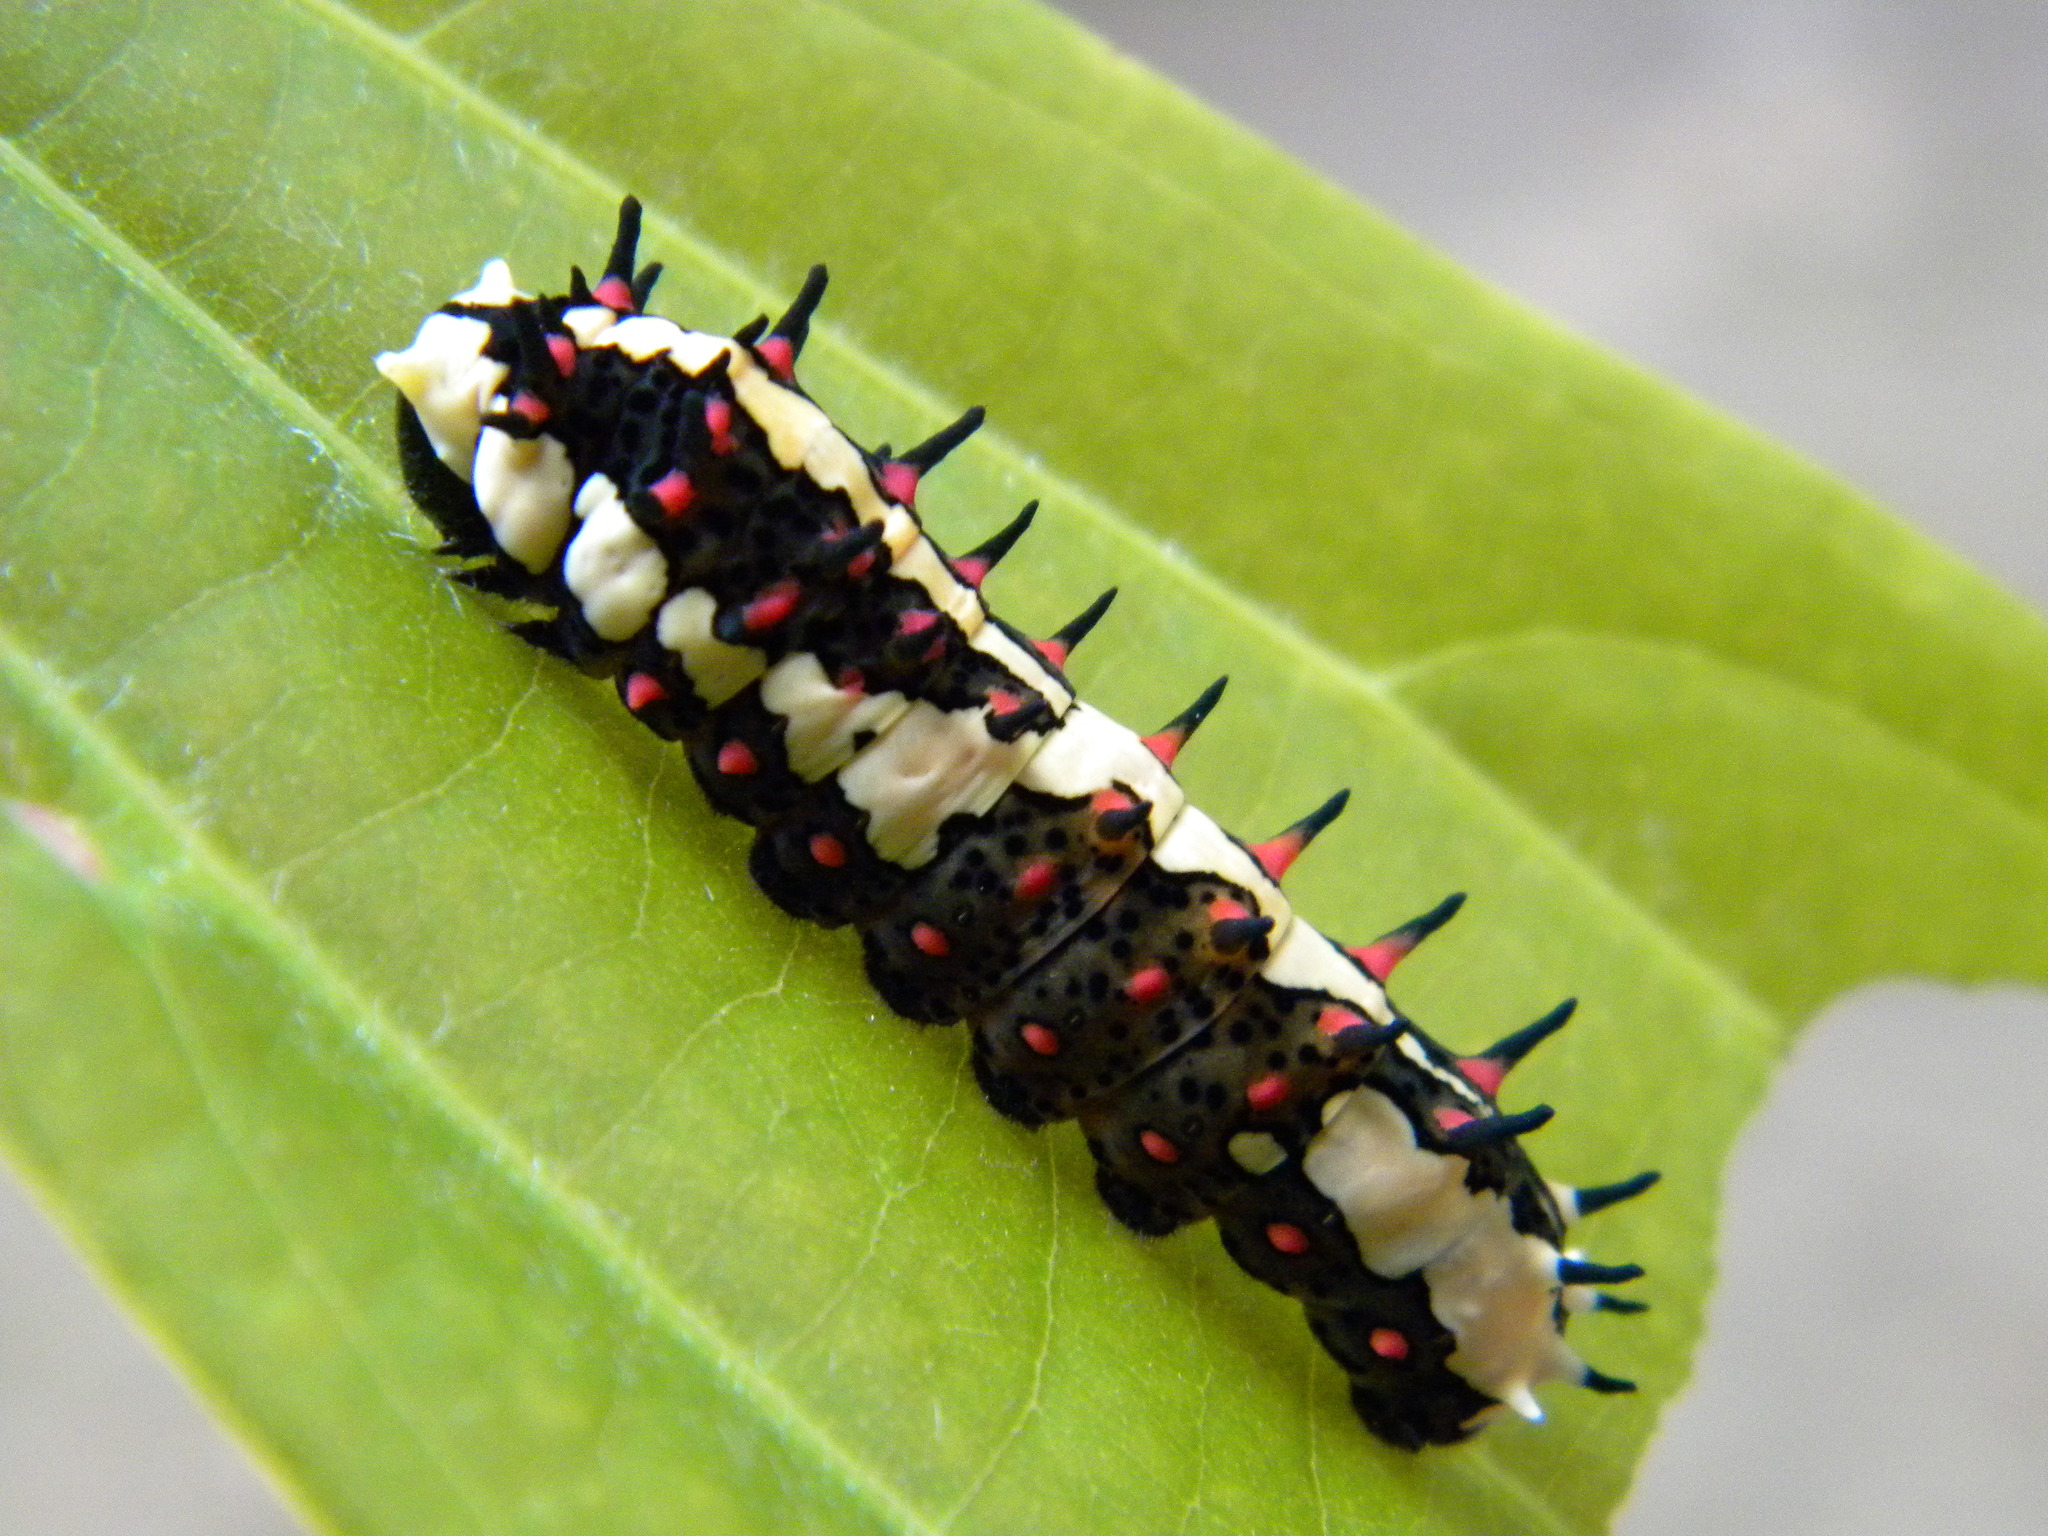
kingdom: Animalia
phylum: Arthropoda
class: Insecta
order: Lepidoptera
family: Papilionidae
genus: Chilasa
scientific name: Chilasa clytia
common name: Common mime
